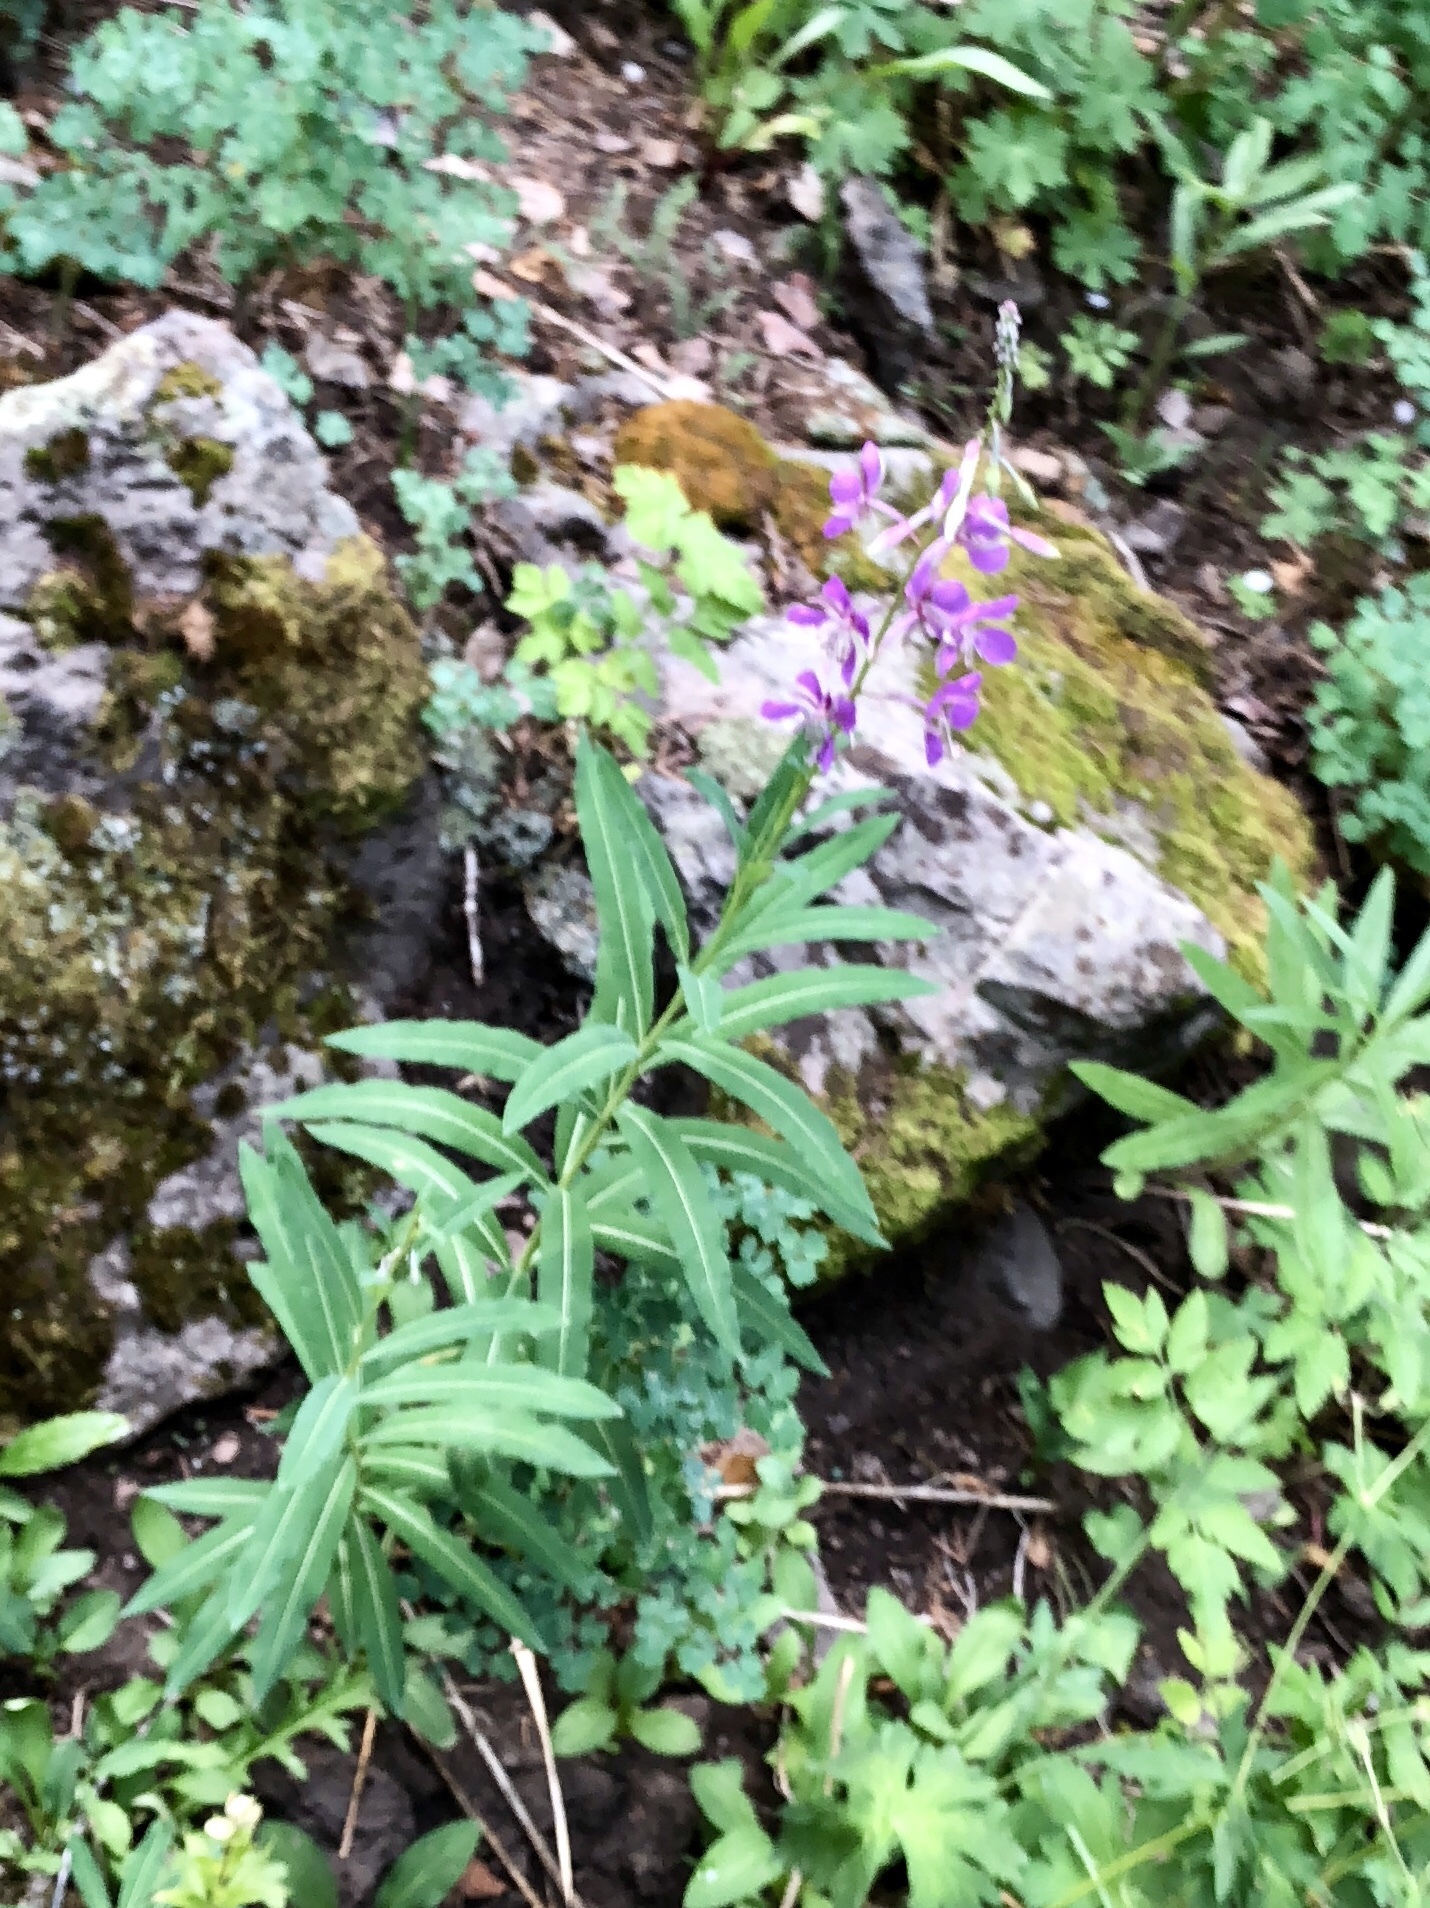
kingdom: Plantae
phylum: Tracheophyta
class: Magnoliopsida
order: Myrtales
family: Onagraceae
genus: Chamaenerion
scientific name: Chamaenerion angustifolium
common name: Fireweed
